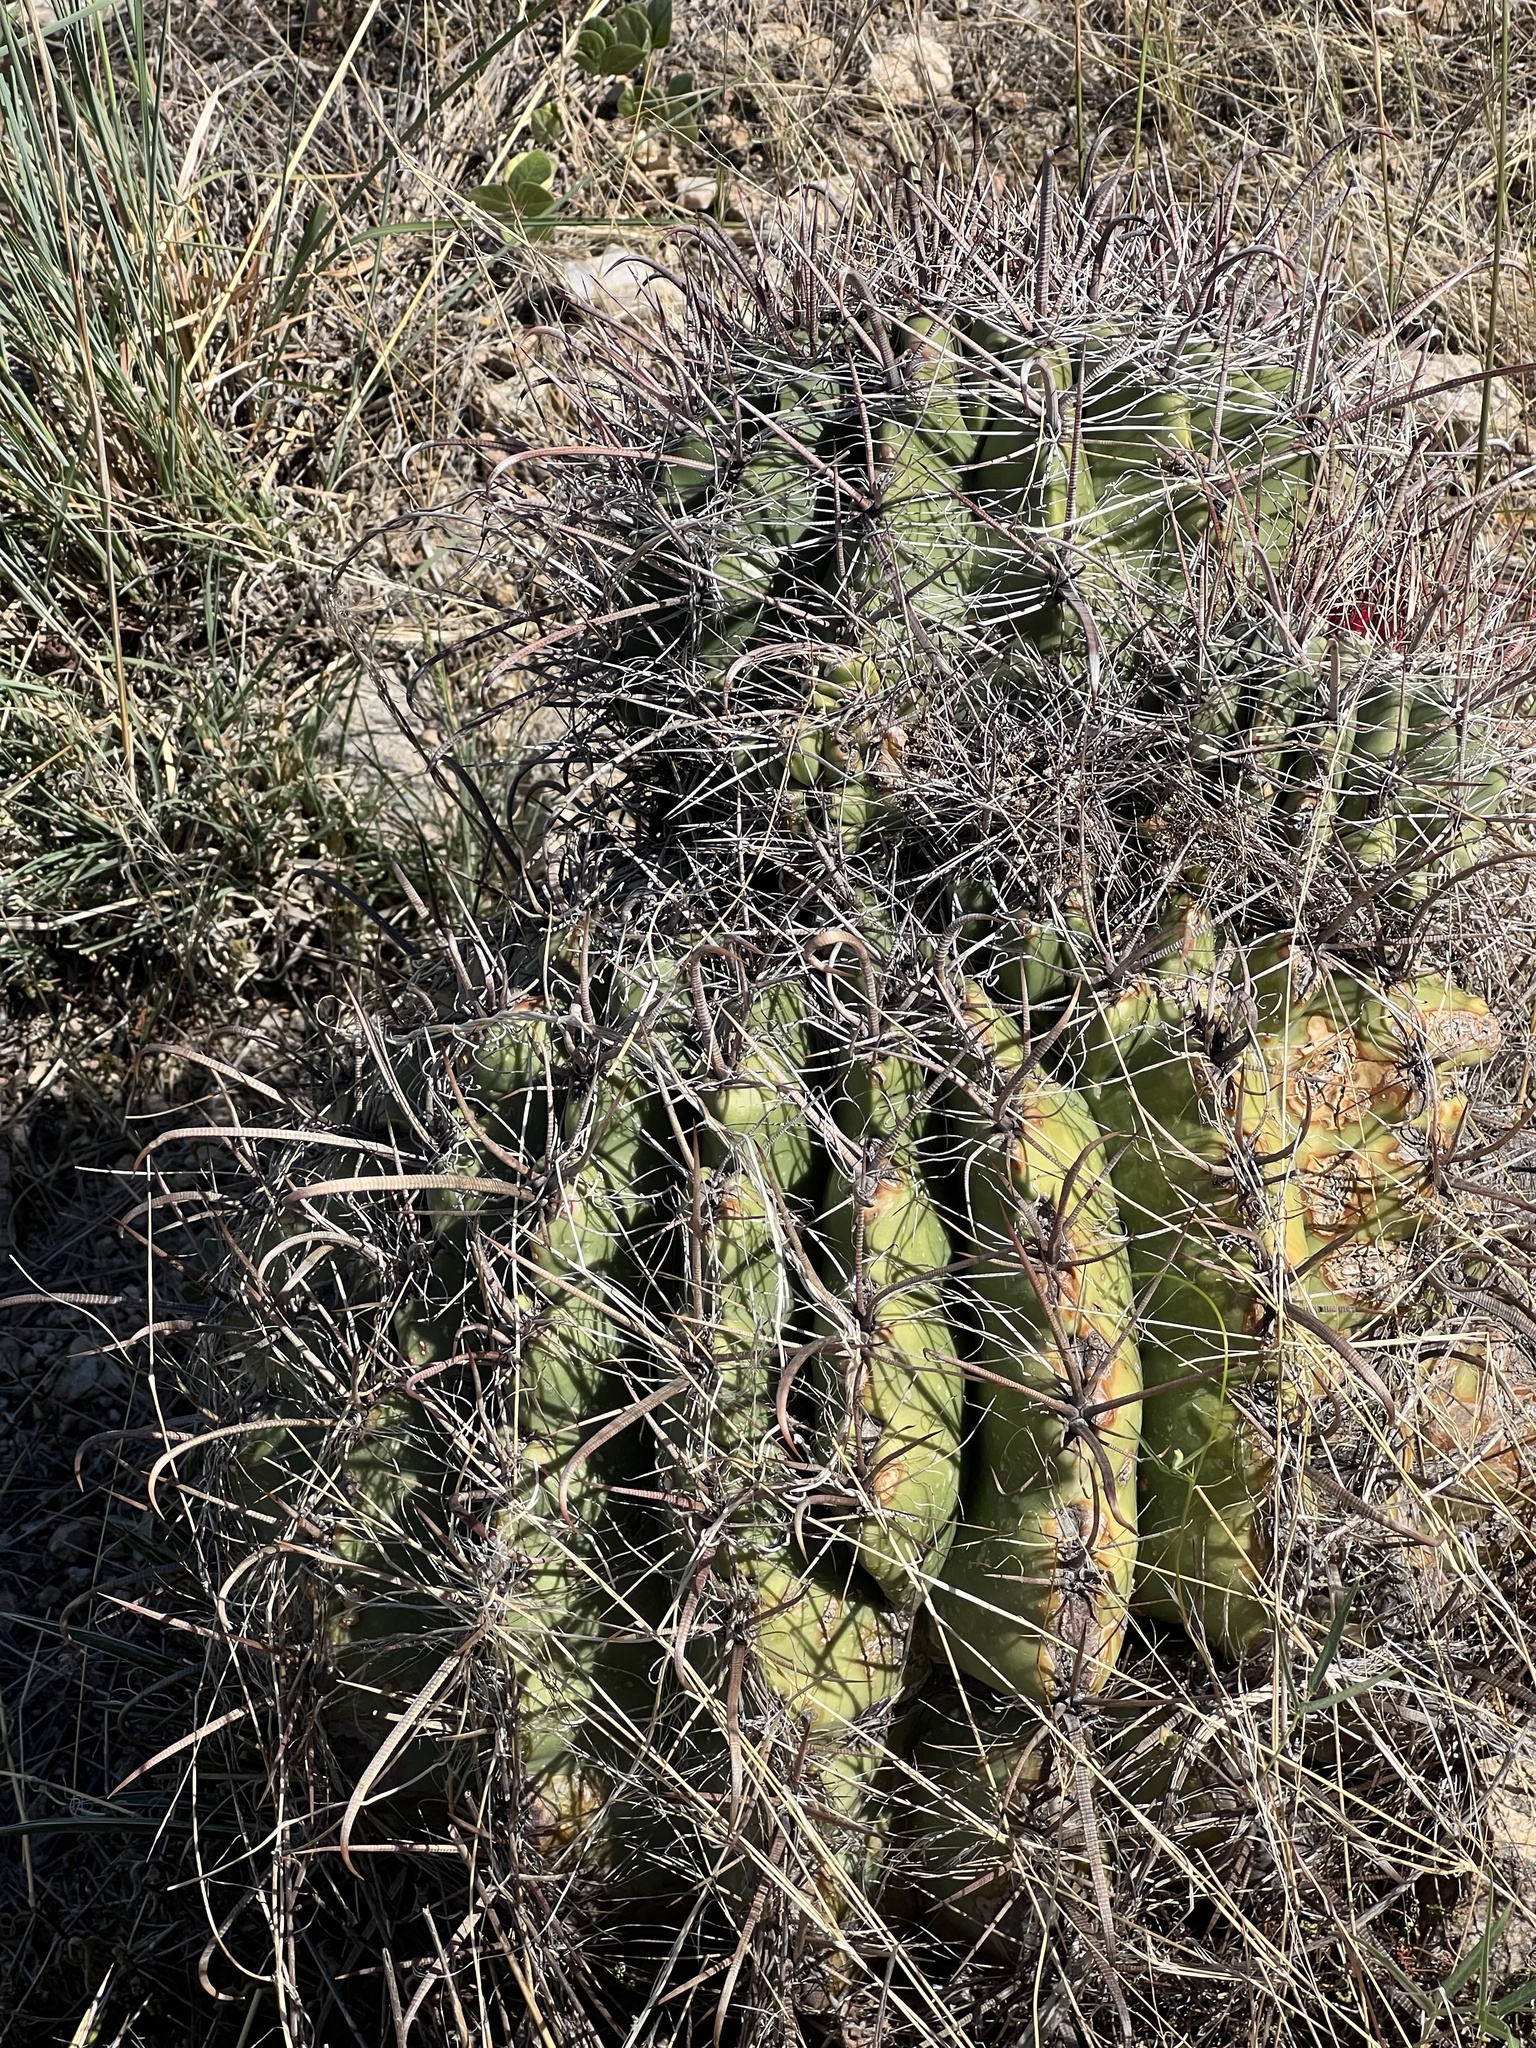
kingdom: Plantae
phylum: Tracheophyta
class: Magnoliopsida
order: Caryophyllales
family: Cactaceae
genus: Ferocactus
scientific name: Ferocactus wislizeni
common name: Candy barrel cactus
